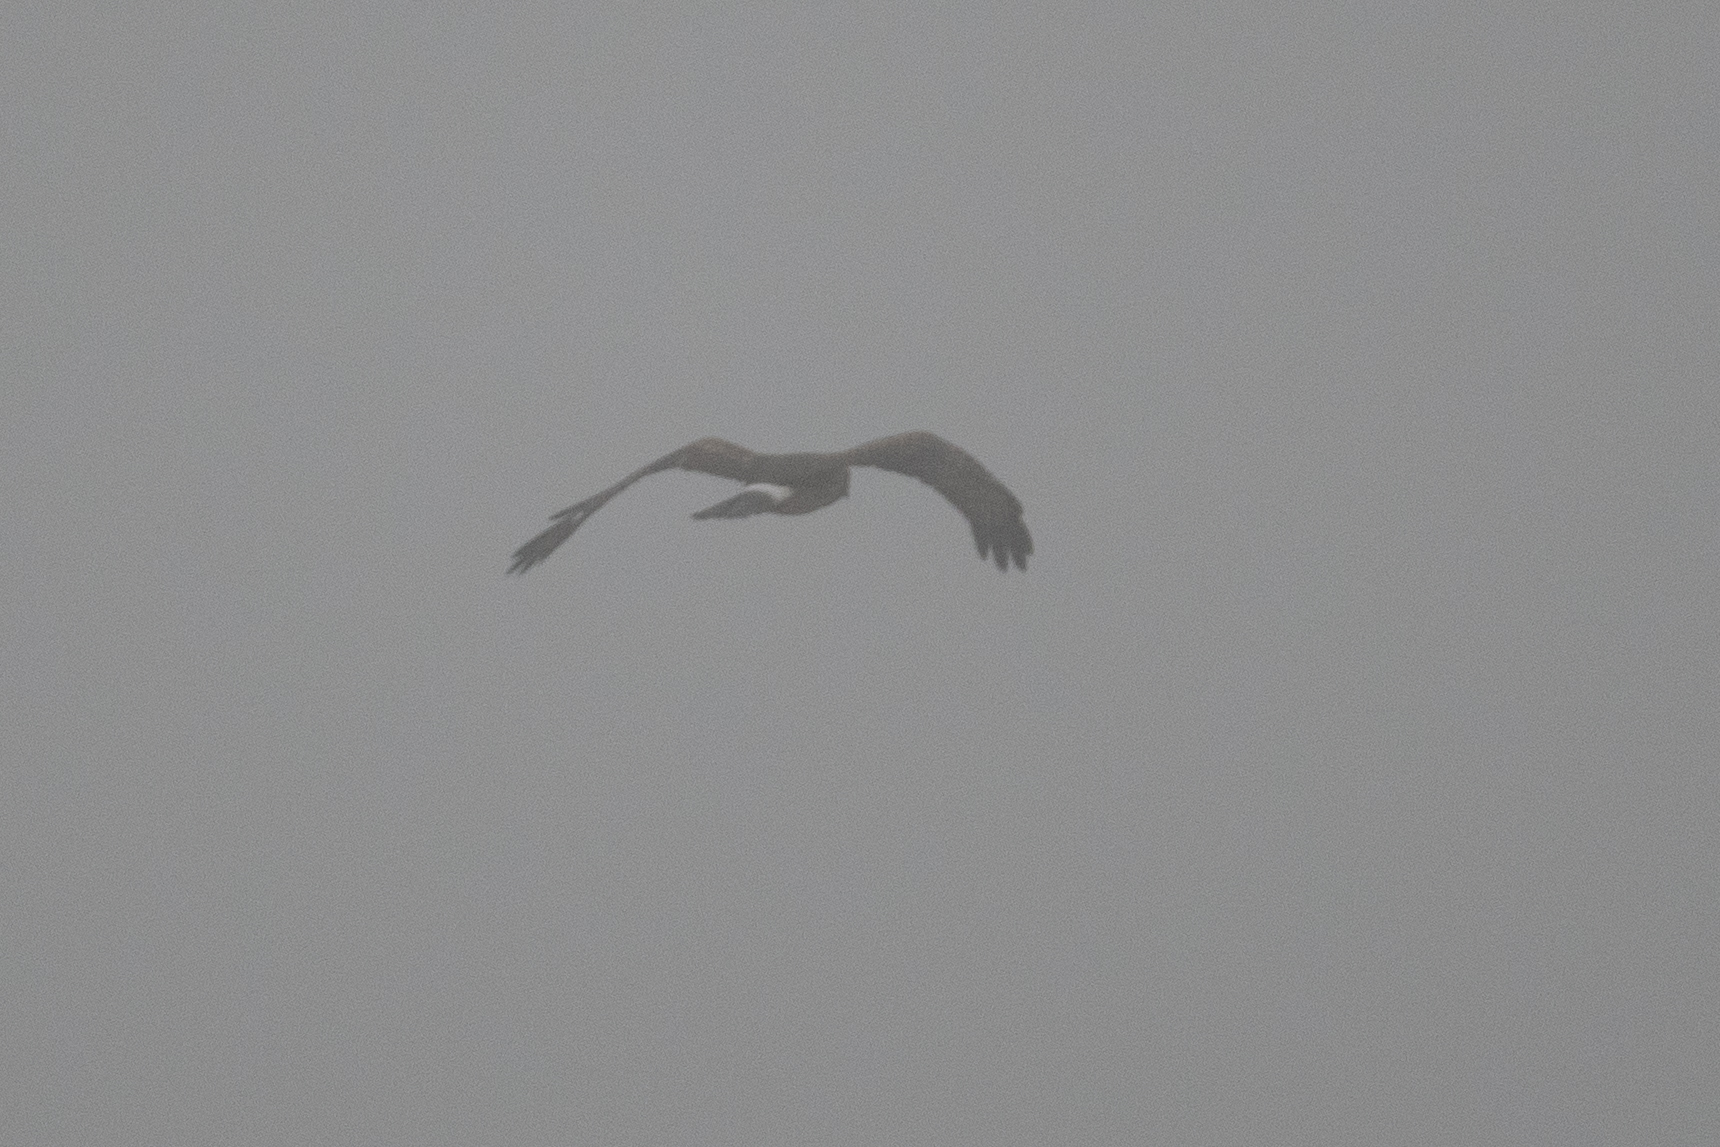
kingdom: Animalia
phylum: Chordata
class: Aves
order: Accipitriformes
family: Accipitridae
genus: Circus
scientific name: Circus cyaneus
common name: Hen harrier
